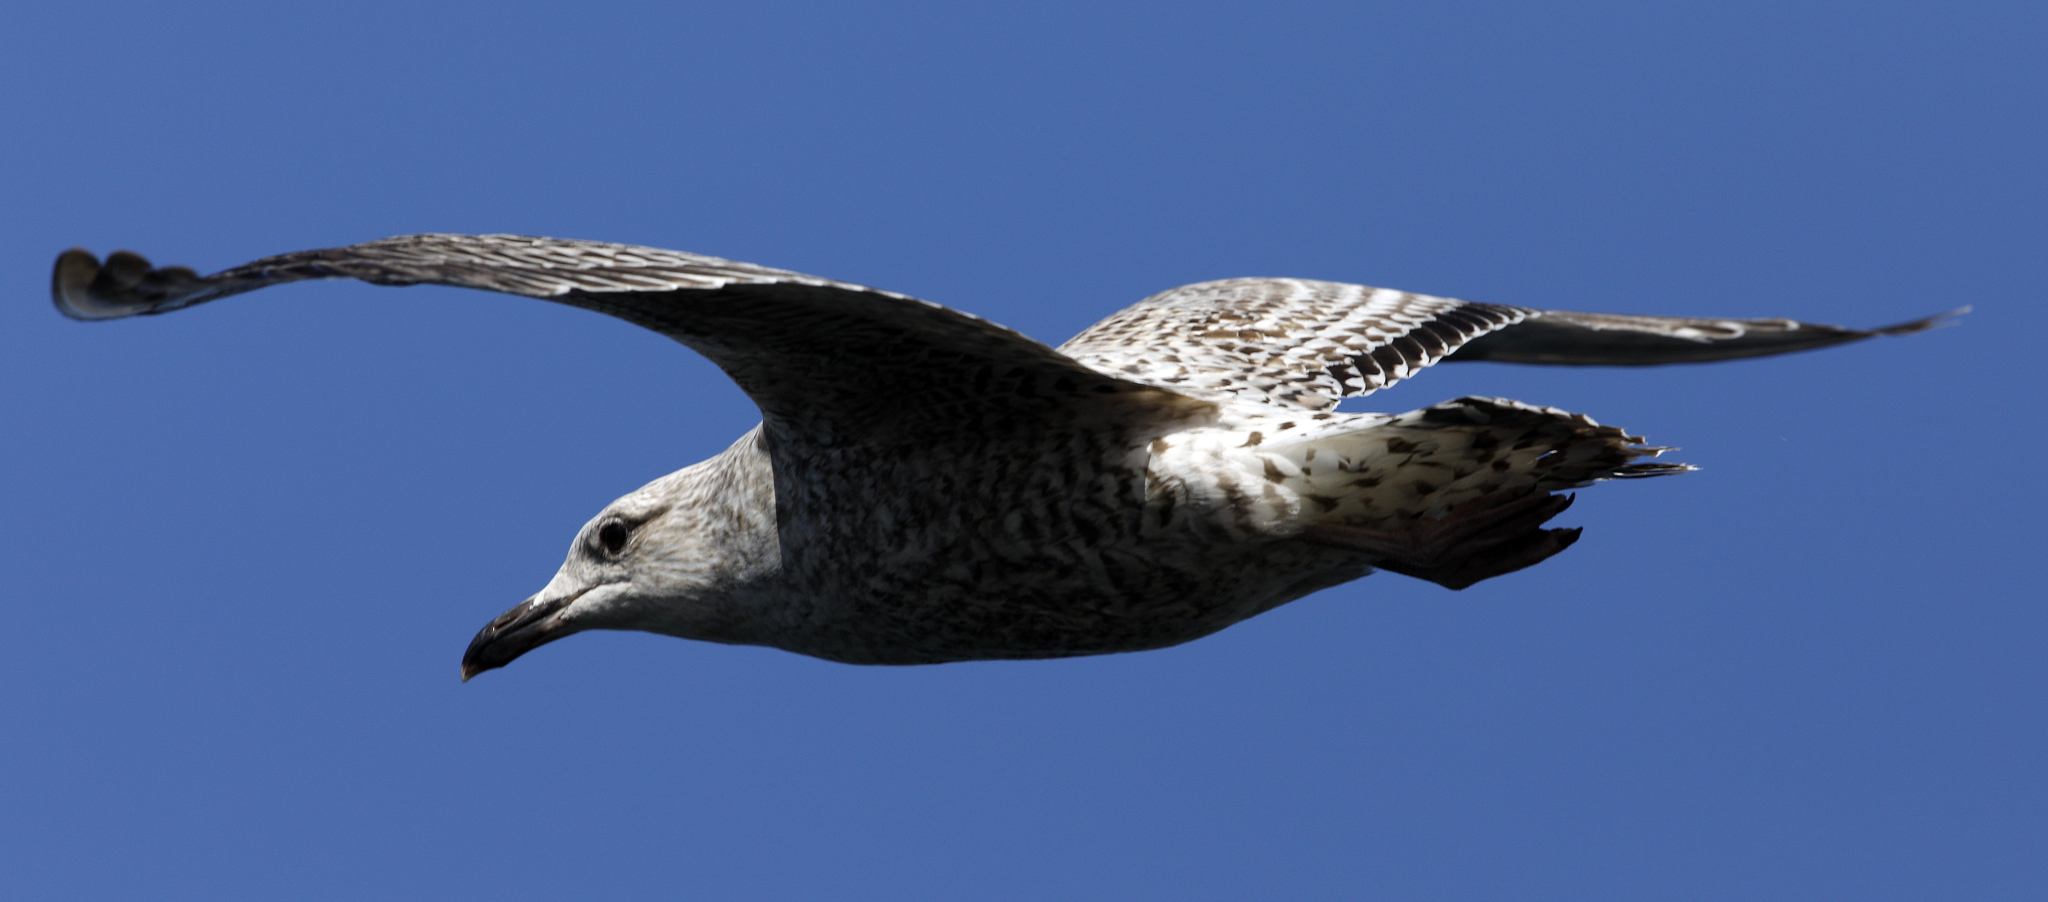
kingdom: Animalia
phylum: Chordata
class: Aves
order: Charadriiformes
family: Laridae
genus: Larus
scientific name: Larus argentatus
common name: Herring gull
